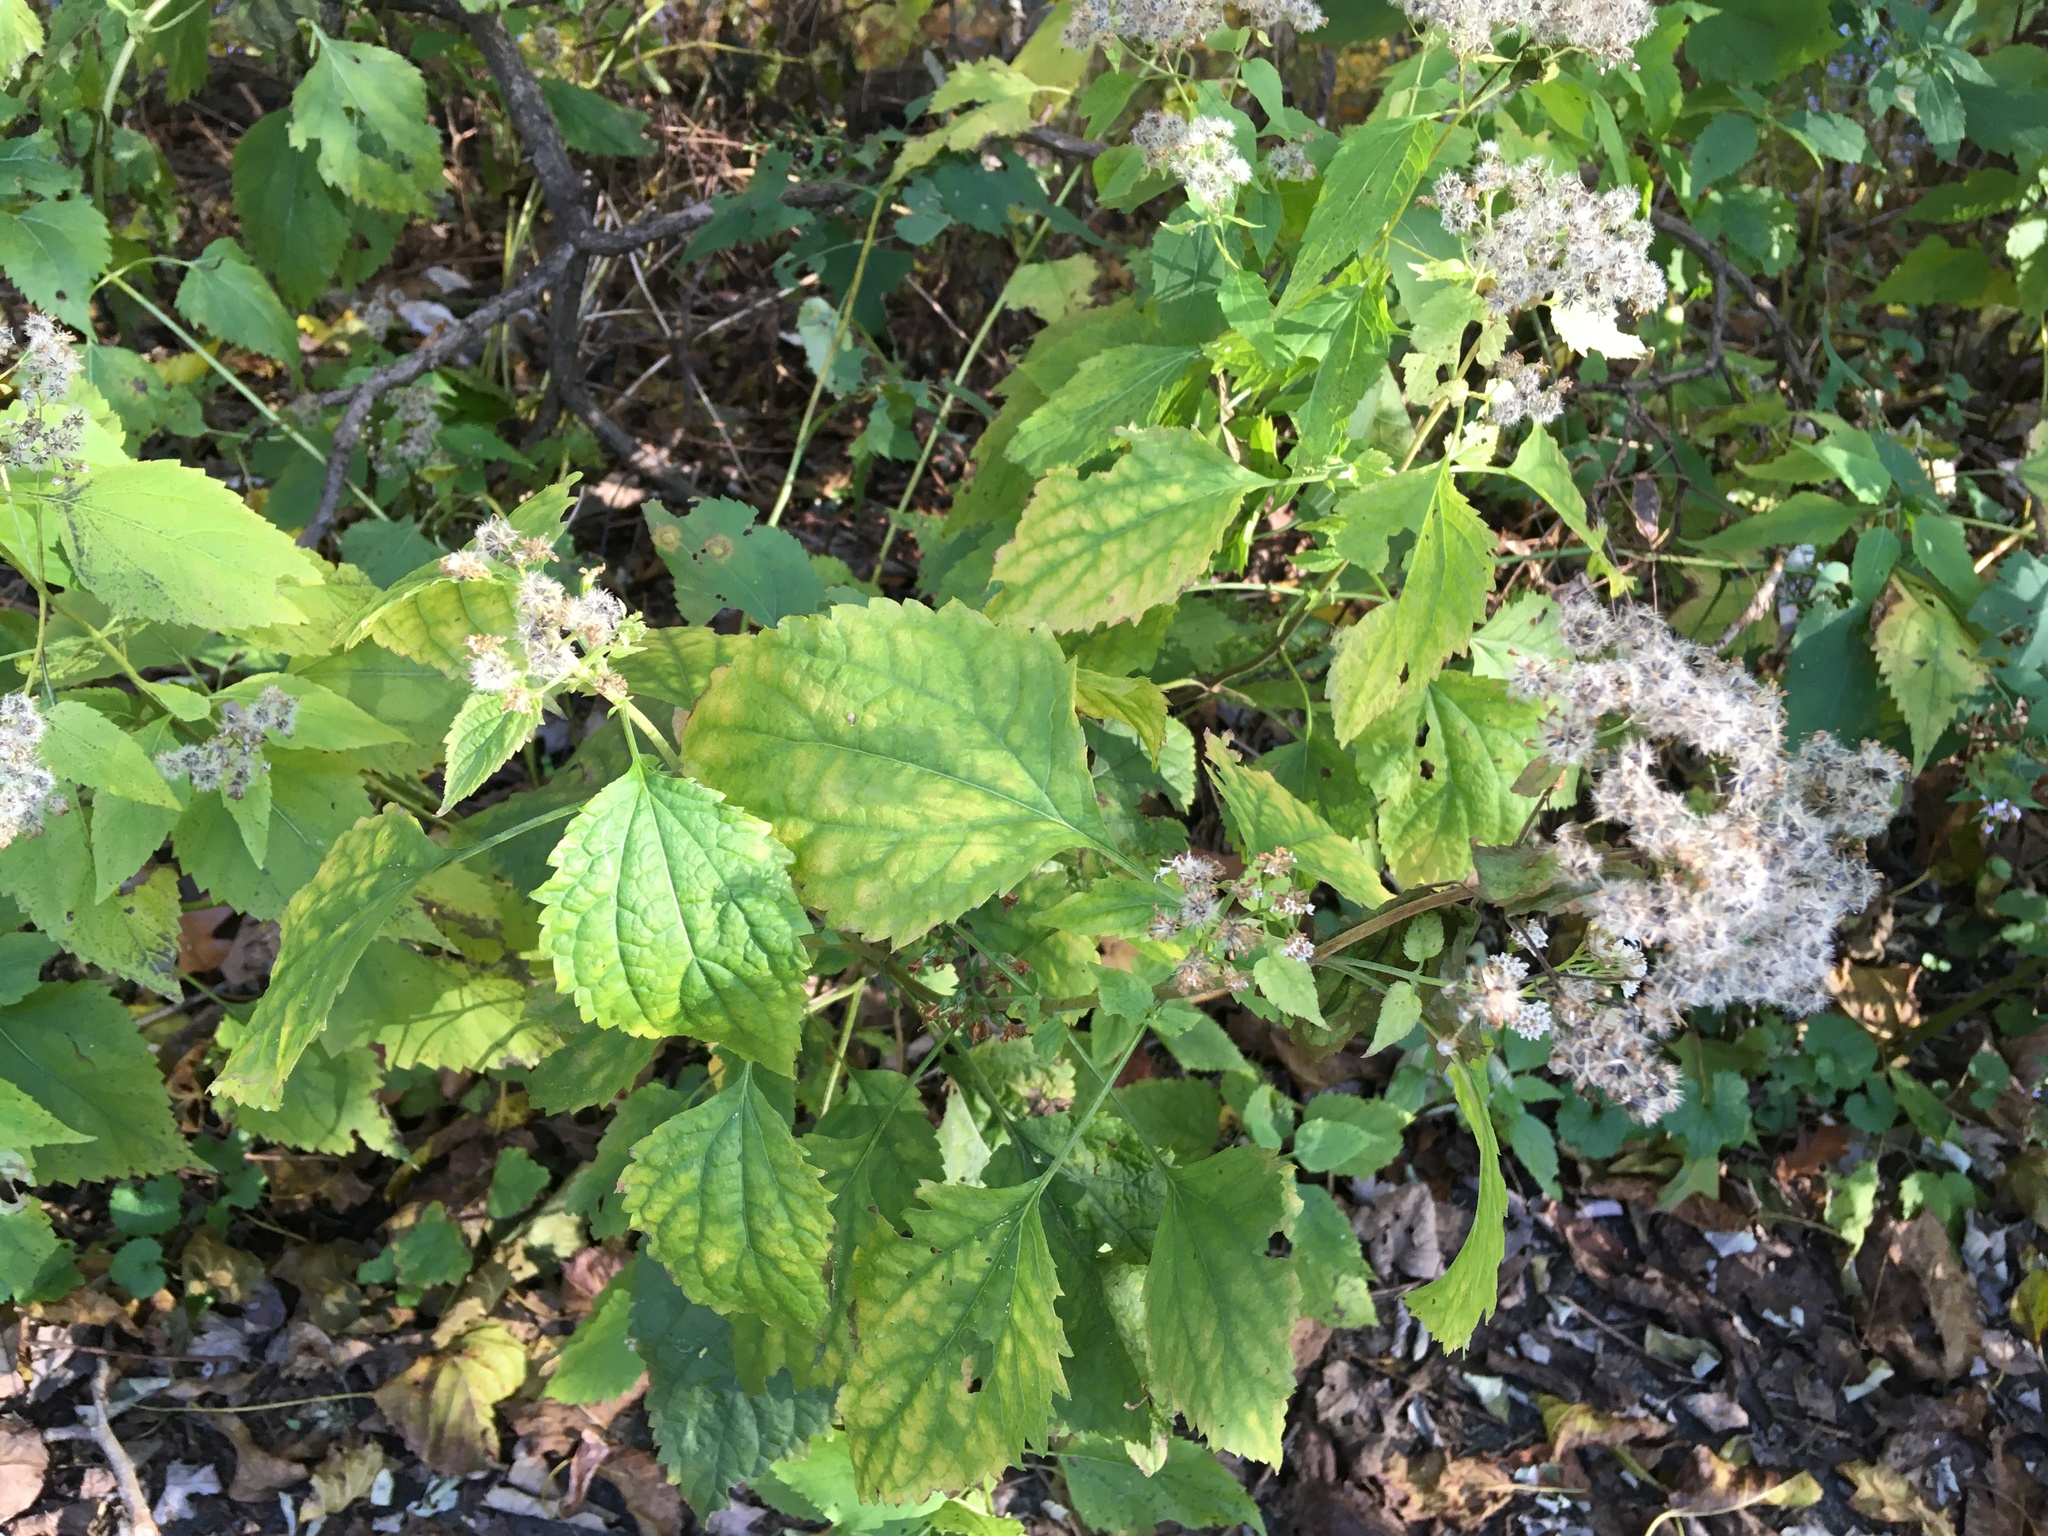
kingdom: Plantae
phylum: Tracheophyta
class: Magnoliopsida
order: Asterales
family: Asteraceae
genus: Ageratina
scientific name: Ageratina altissima
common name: White snakeroot
